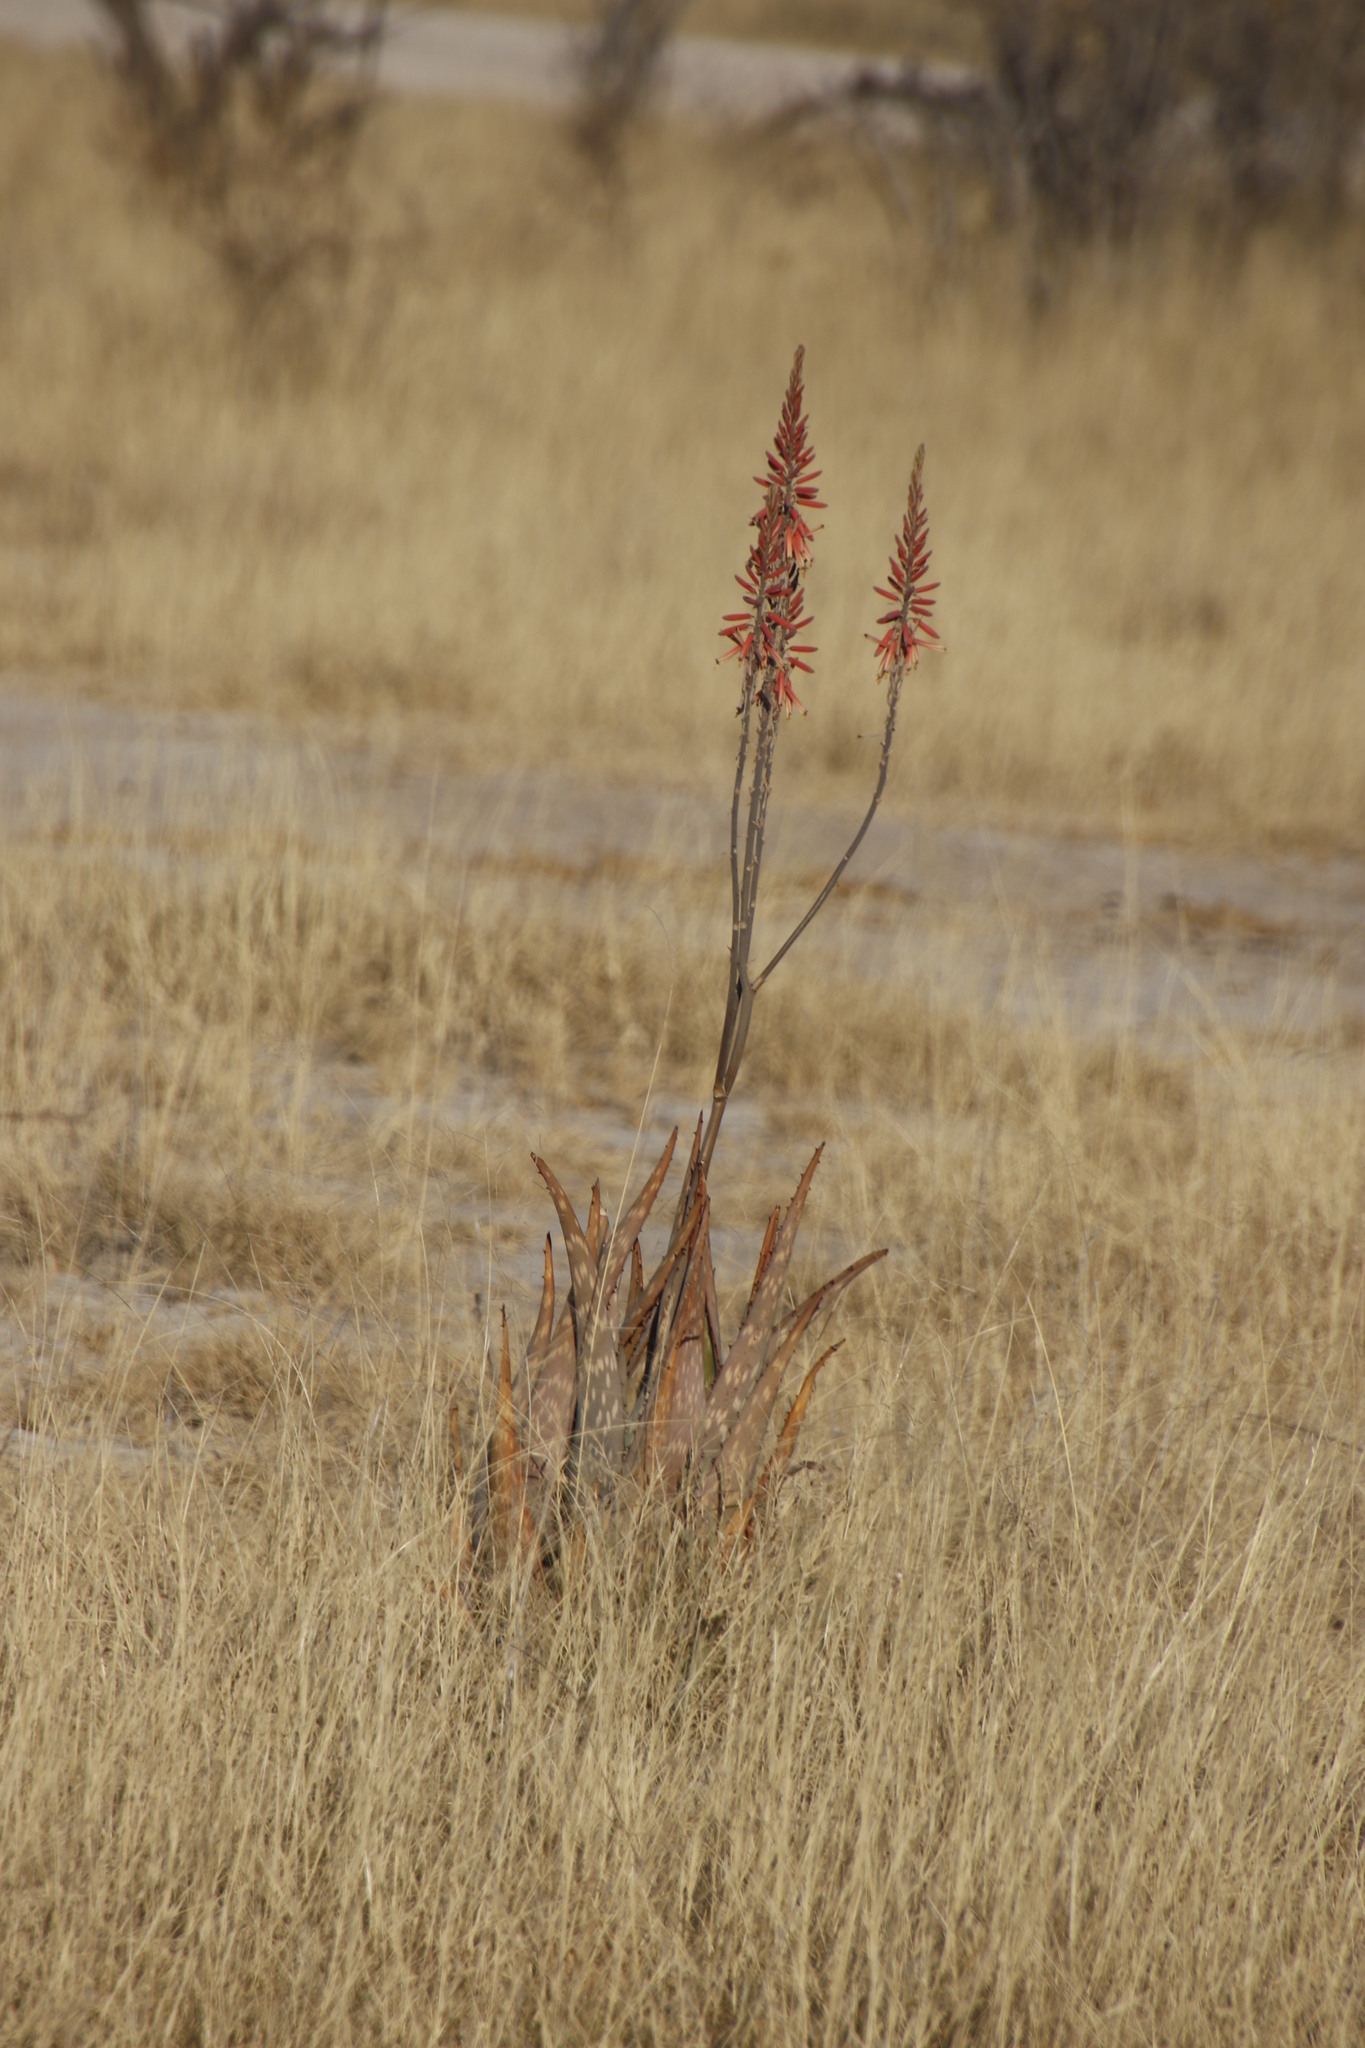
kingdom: Plantae
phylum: Tracheophyta
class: Liliopsida
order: Asparagales
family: Asphodelaceae
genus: Aloe
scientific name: Aloe esculenta
